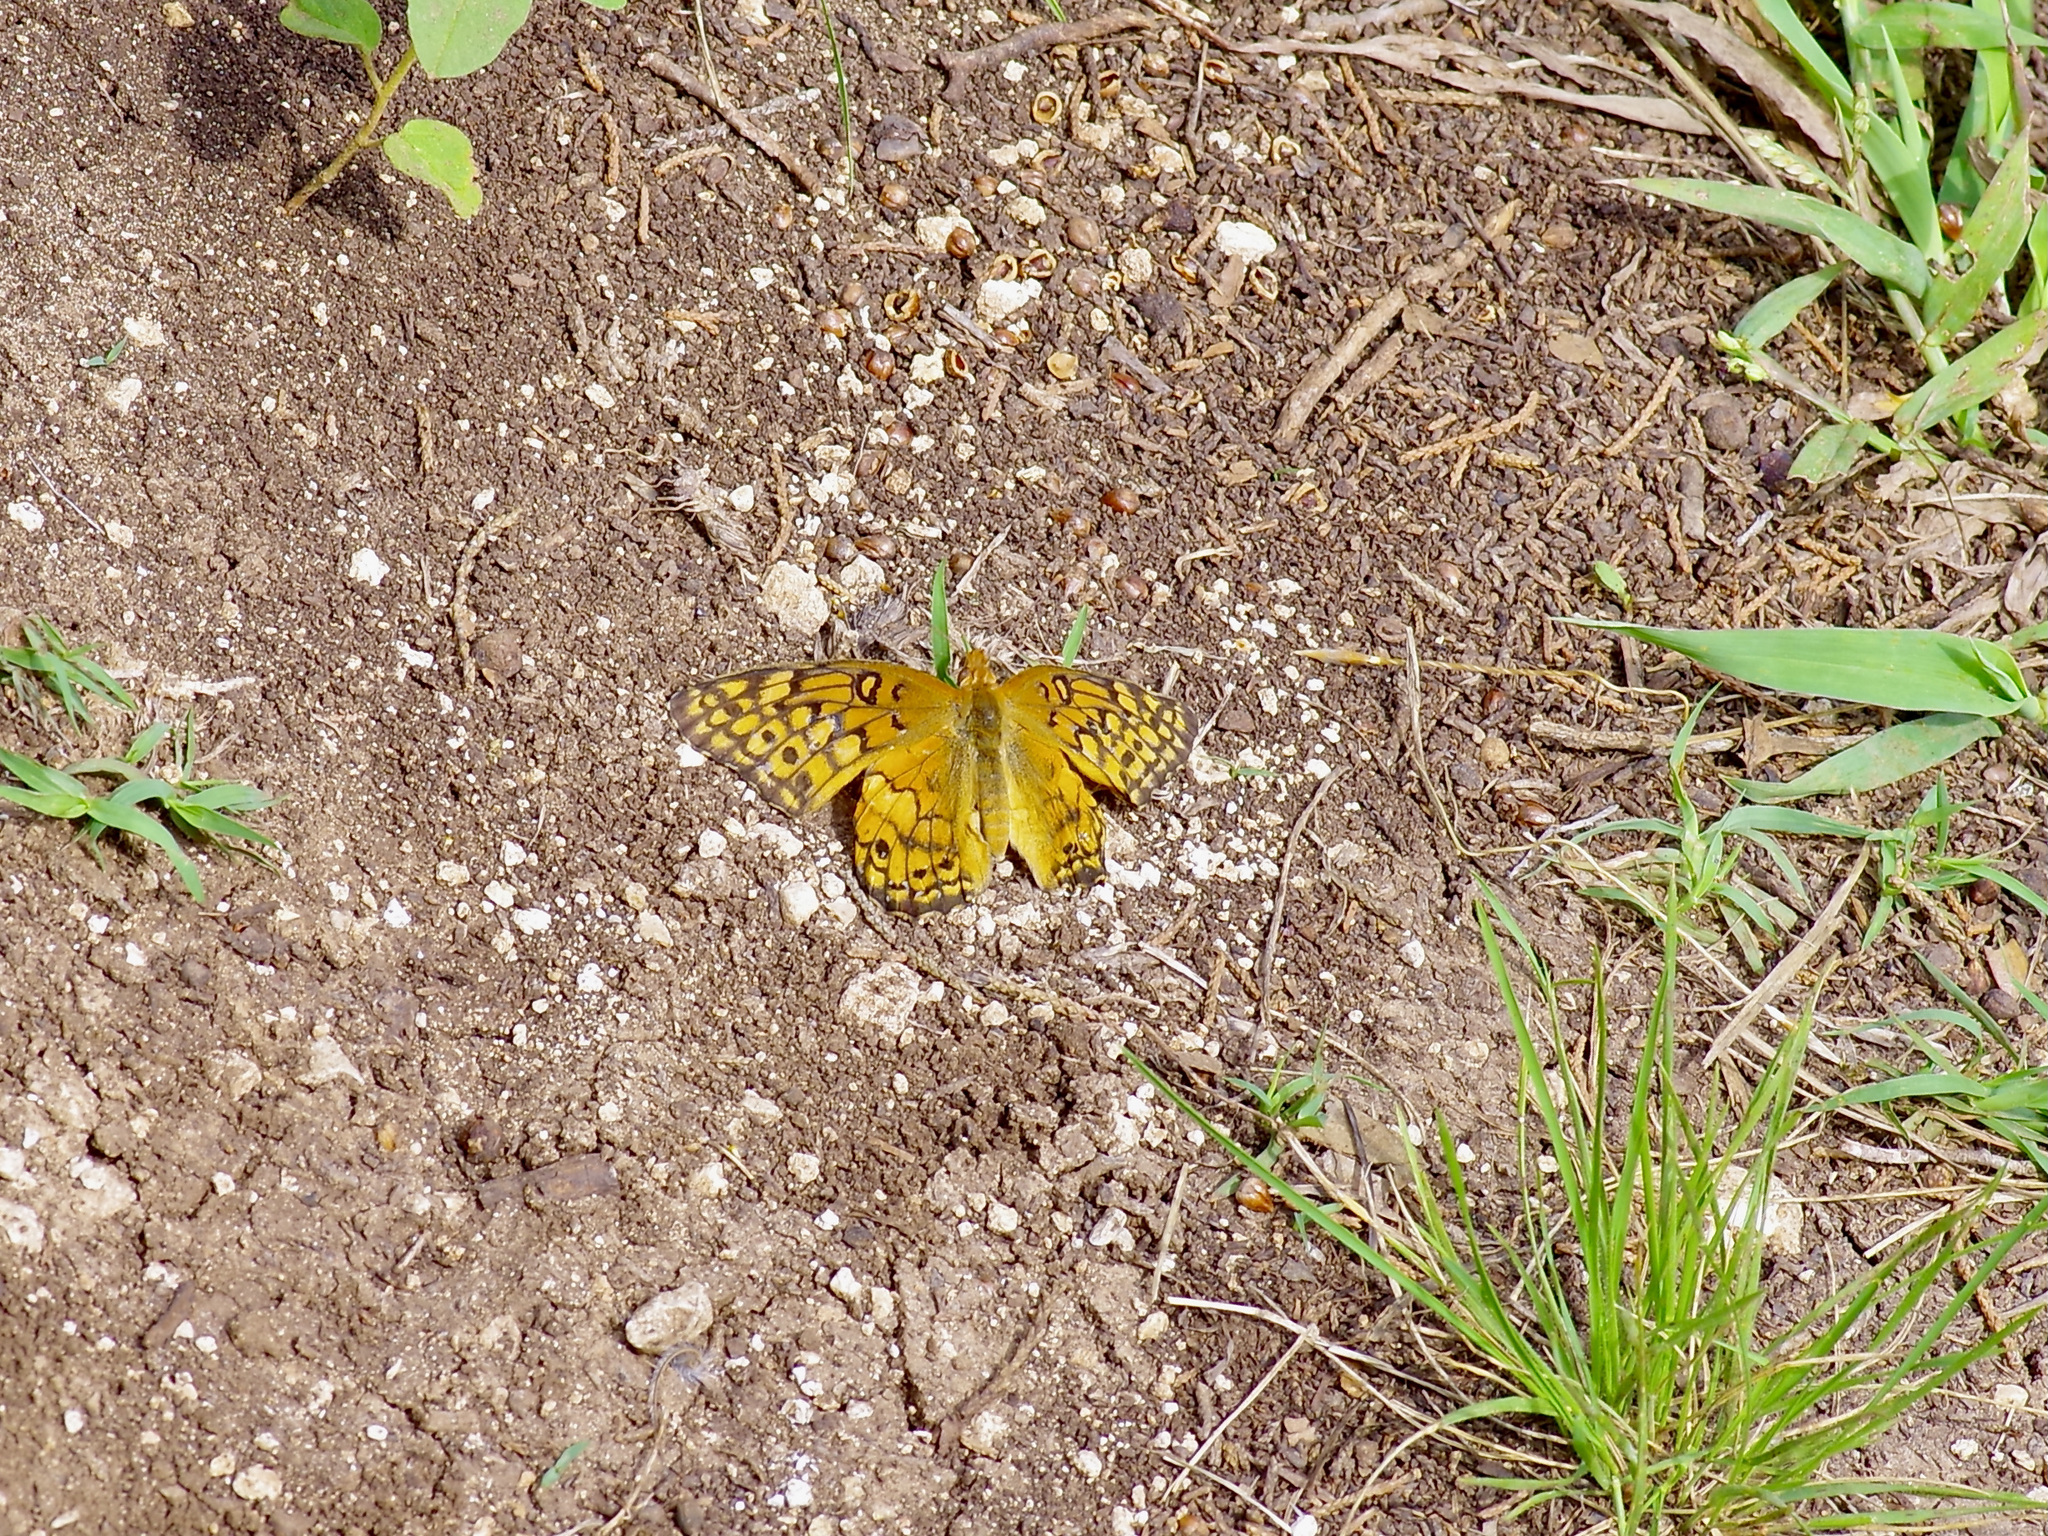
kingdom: Animalia
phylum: Arthropoda
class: Insecta
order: Lepidoptera
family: Nymphalidae
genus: Euptoieta
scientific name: Euptoieta claudia
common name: Variegated fritillary
